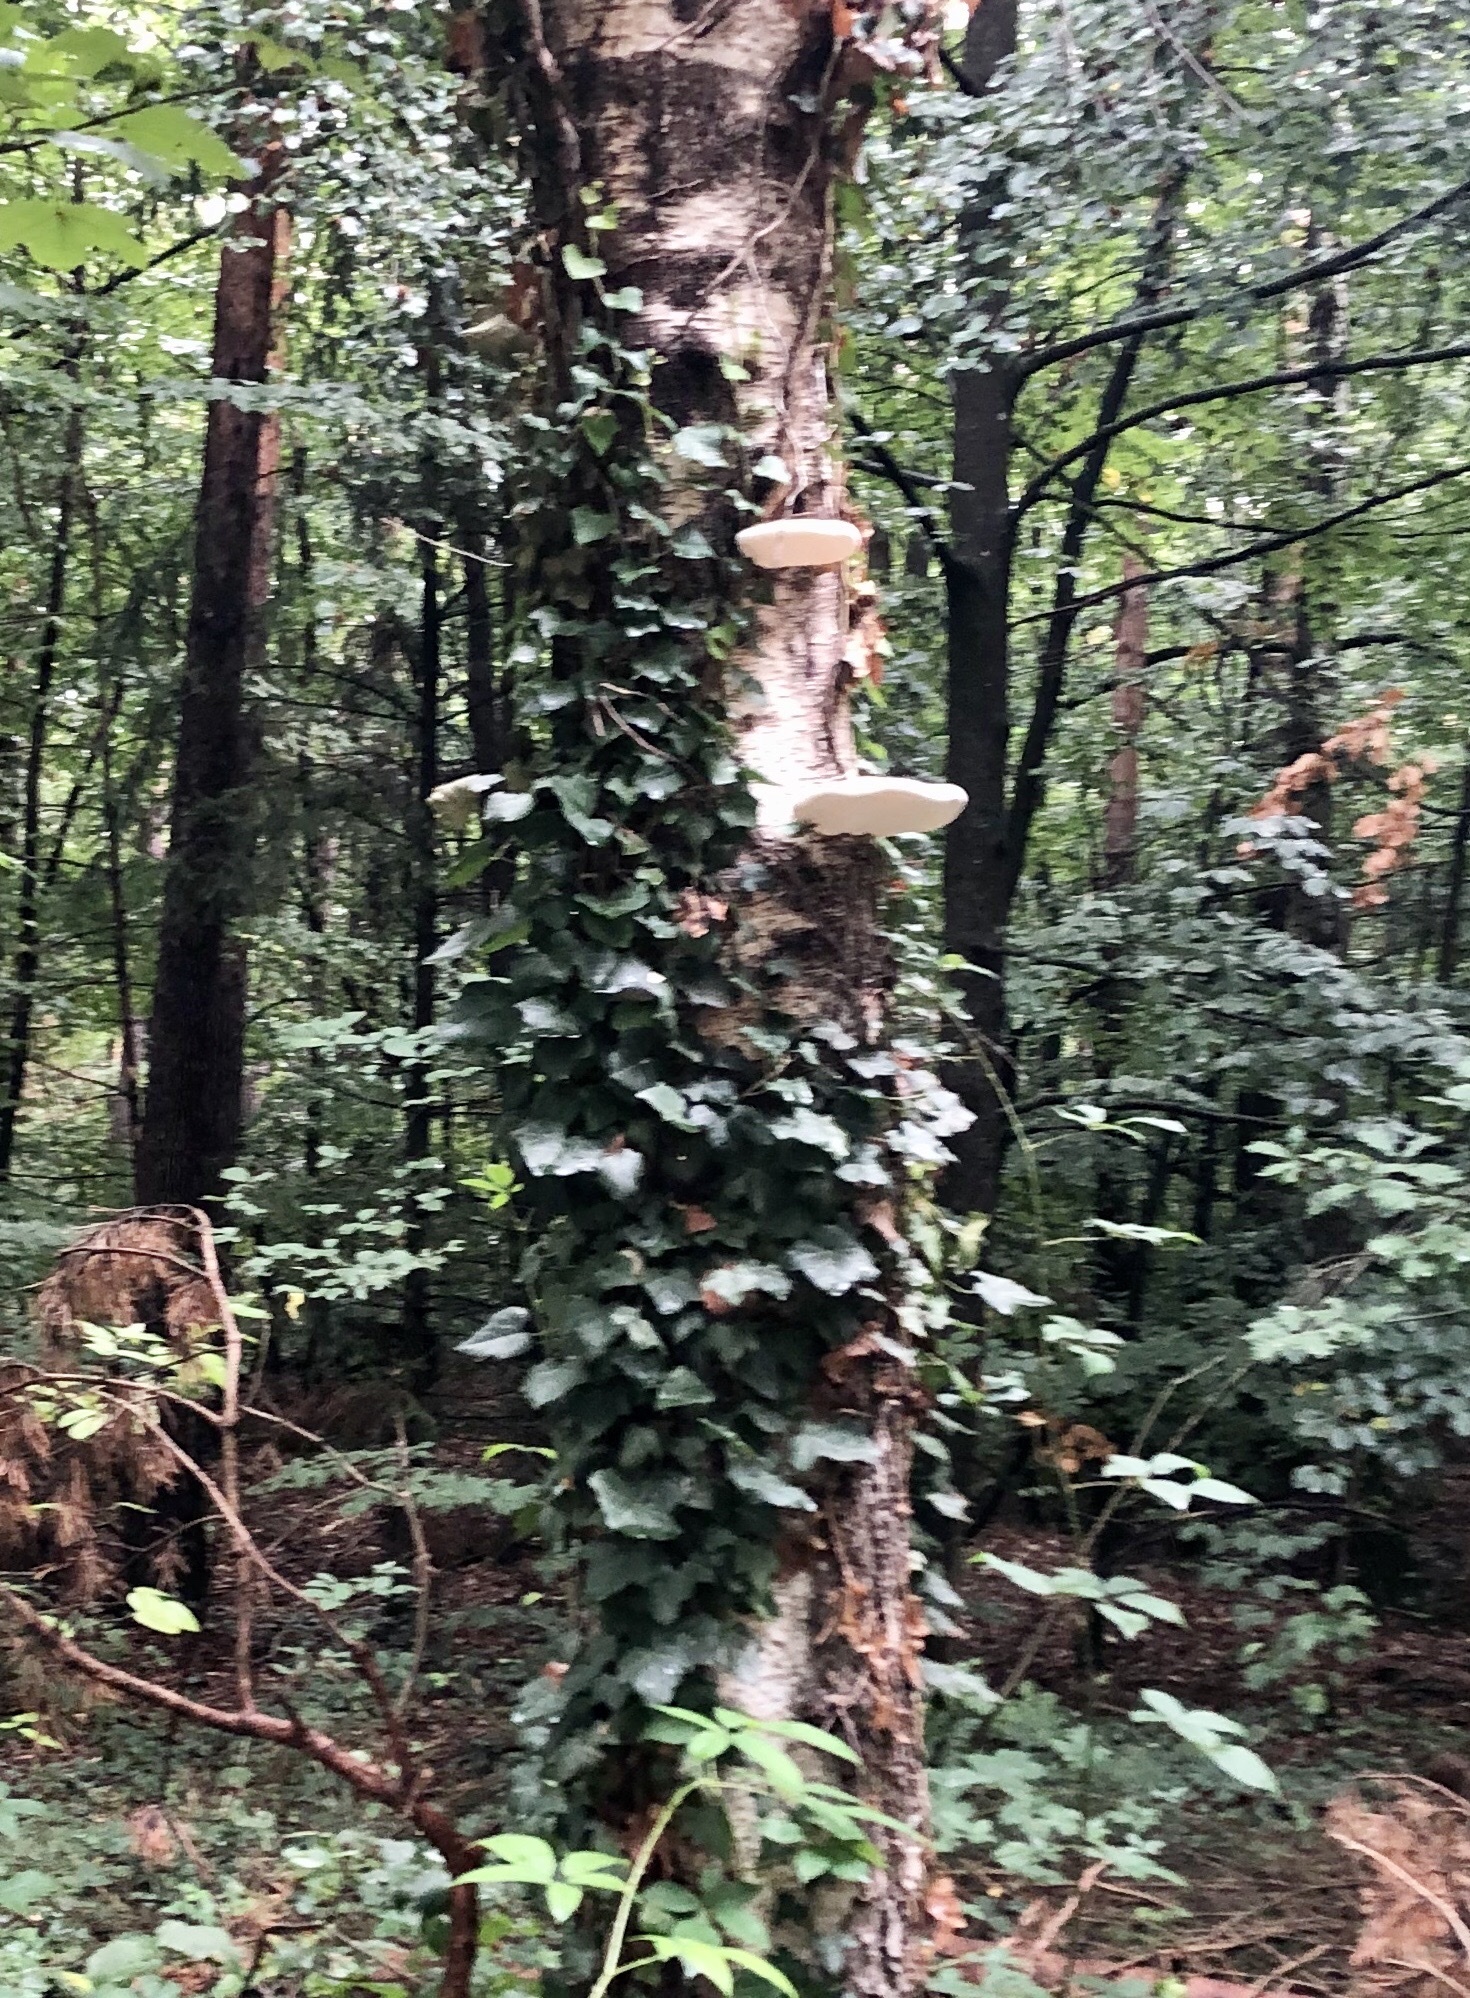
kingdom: Fungi
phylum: Basidiomycota
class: Agaricomycetes
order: Polyporales
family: Fomitopsidaceae
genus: Fomitopsis
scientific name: Fomitopsis betulina
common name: Birch polypore
